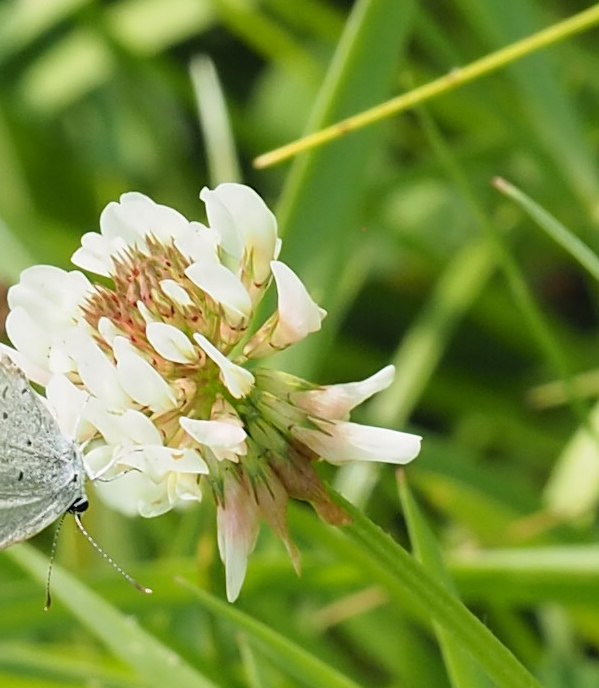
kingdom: Plantae
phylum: Tracheophyta
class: Magnoliopsida
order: Fabales
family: Fabaceae
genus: Trifolium
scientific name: Trifolium repens
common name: White clover
